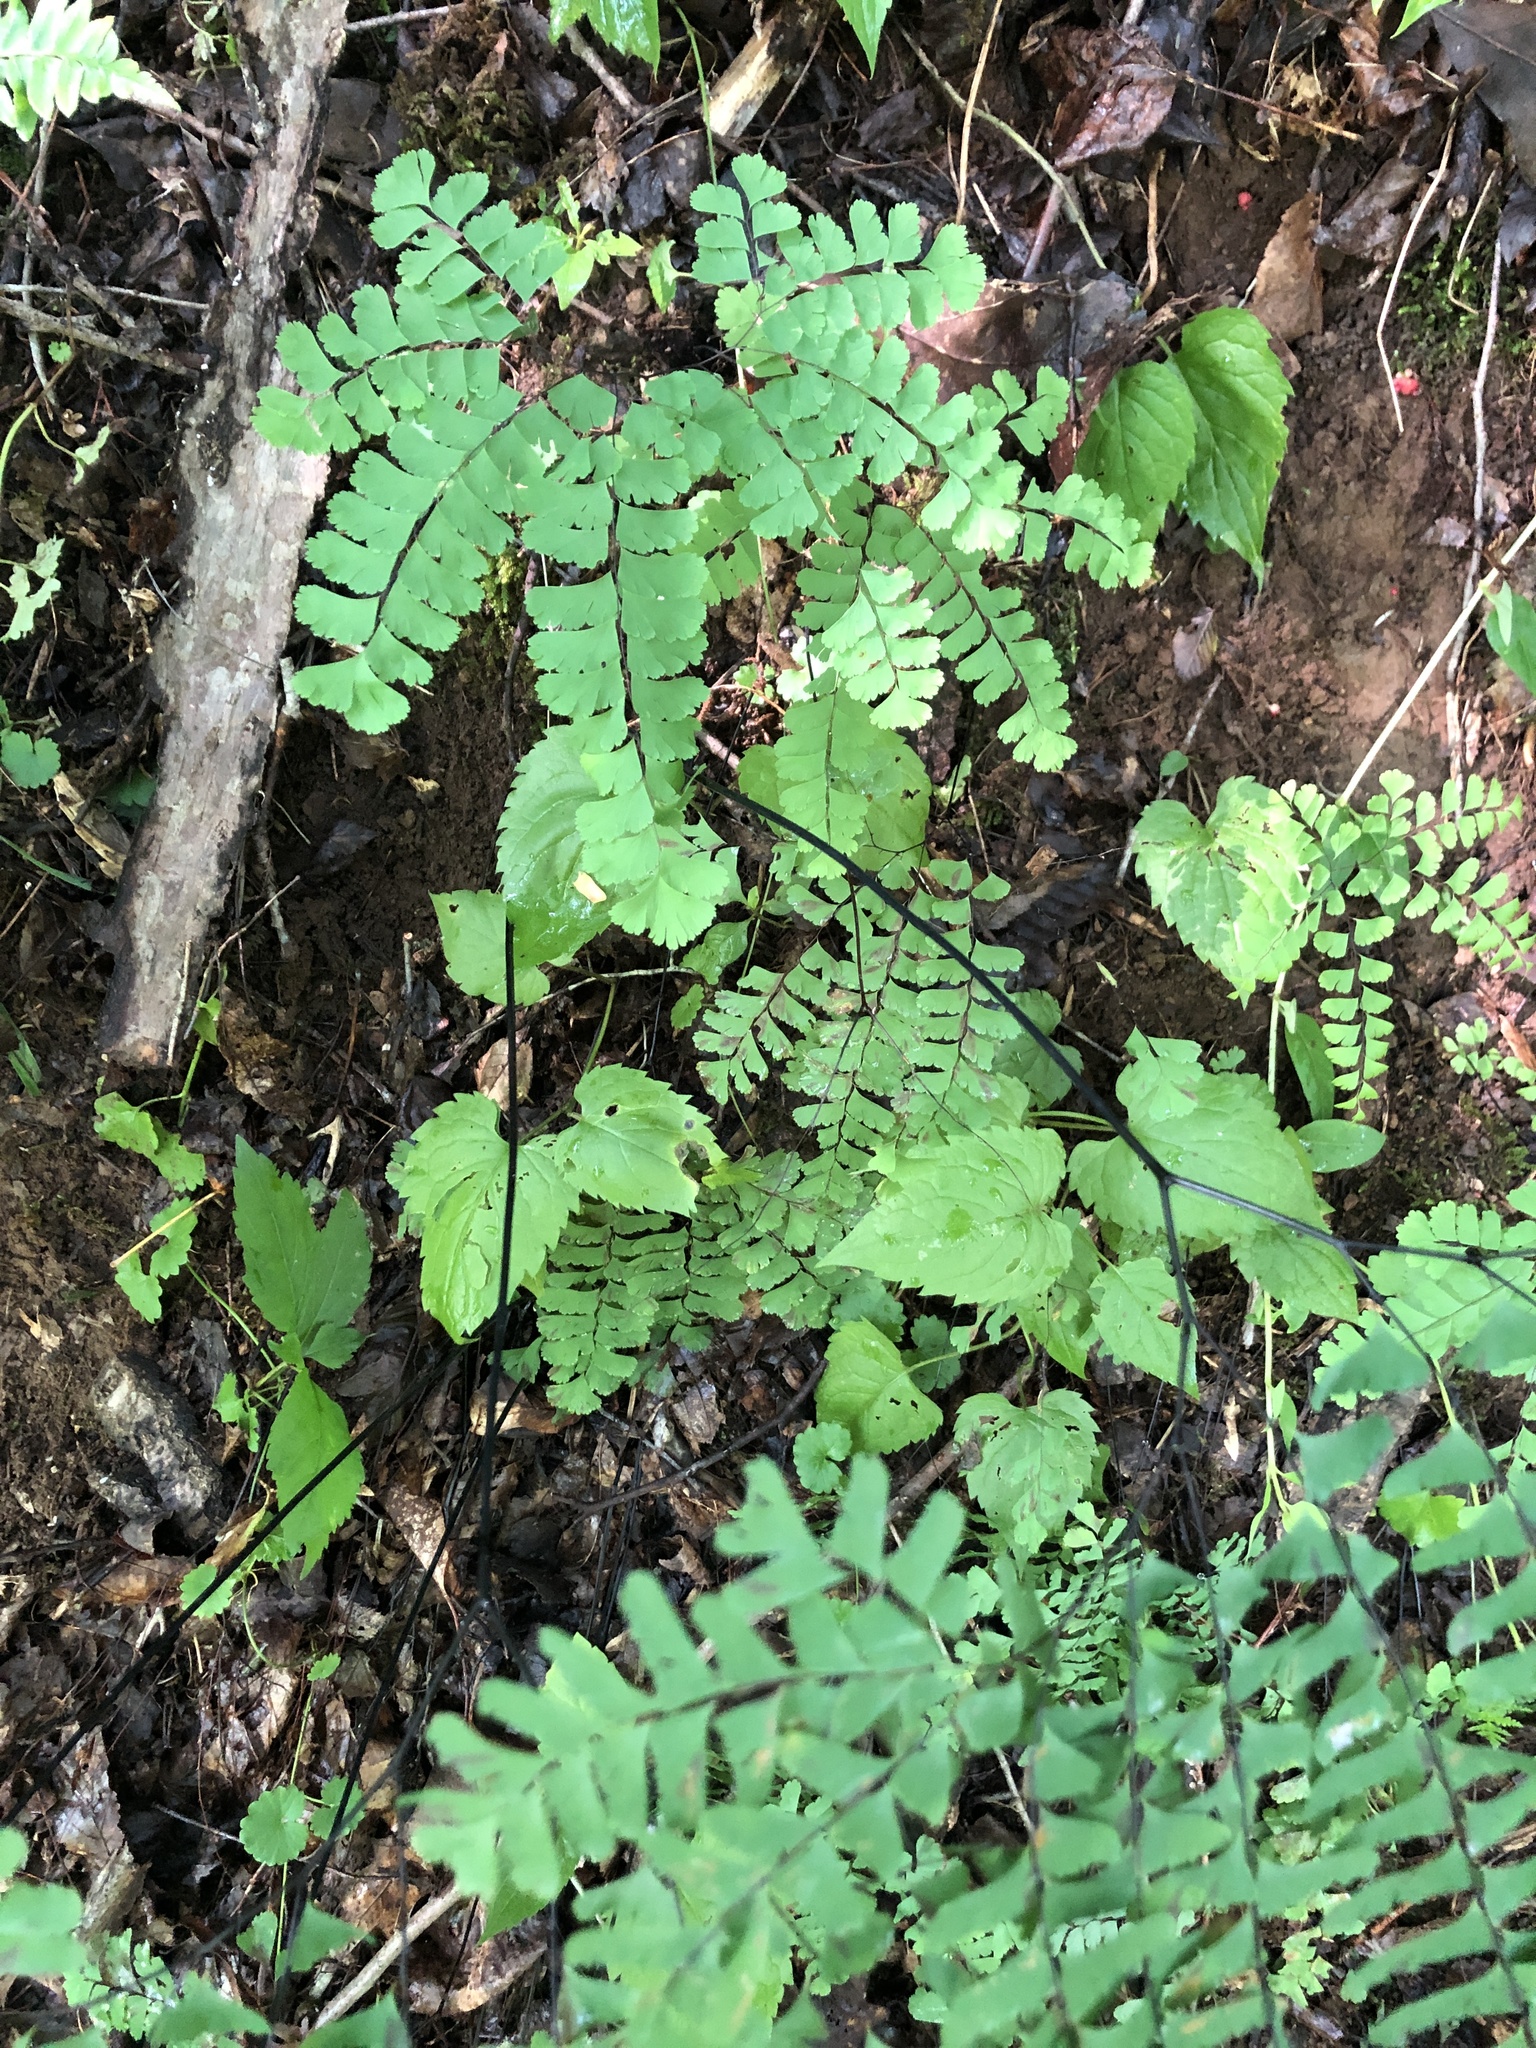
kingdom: Plantae
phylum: Tracheophyta
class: Polypodiopsida
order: Polypodiales
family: Pteridaceae
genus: Adiantum
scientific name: Adiantum pedatum
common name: Five-finger fern
